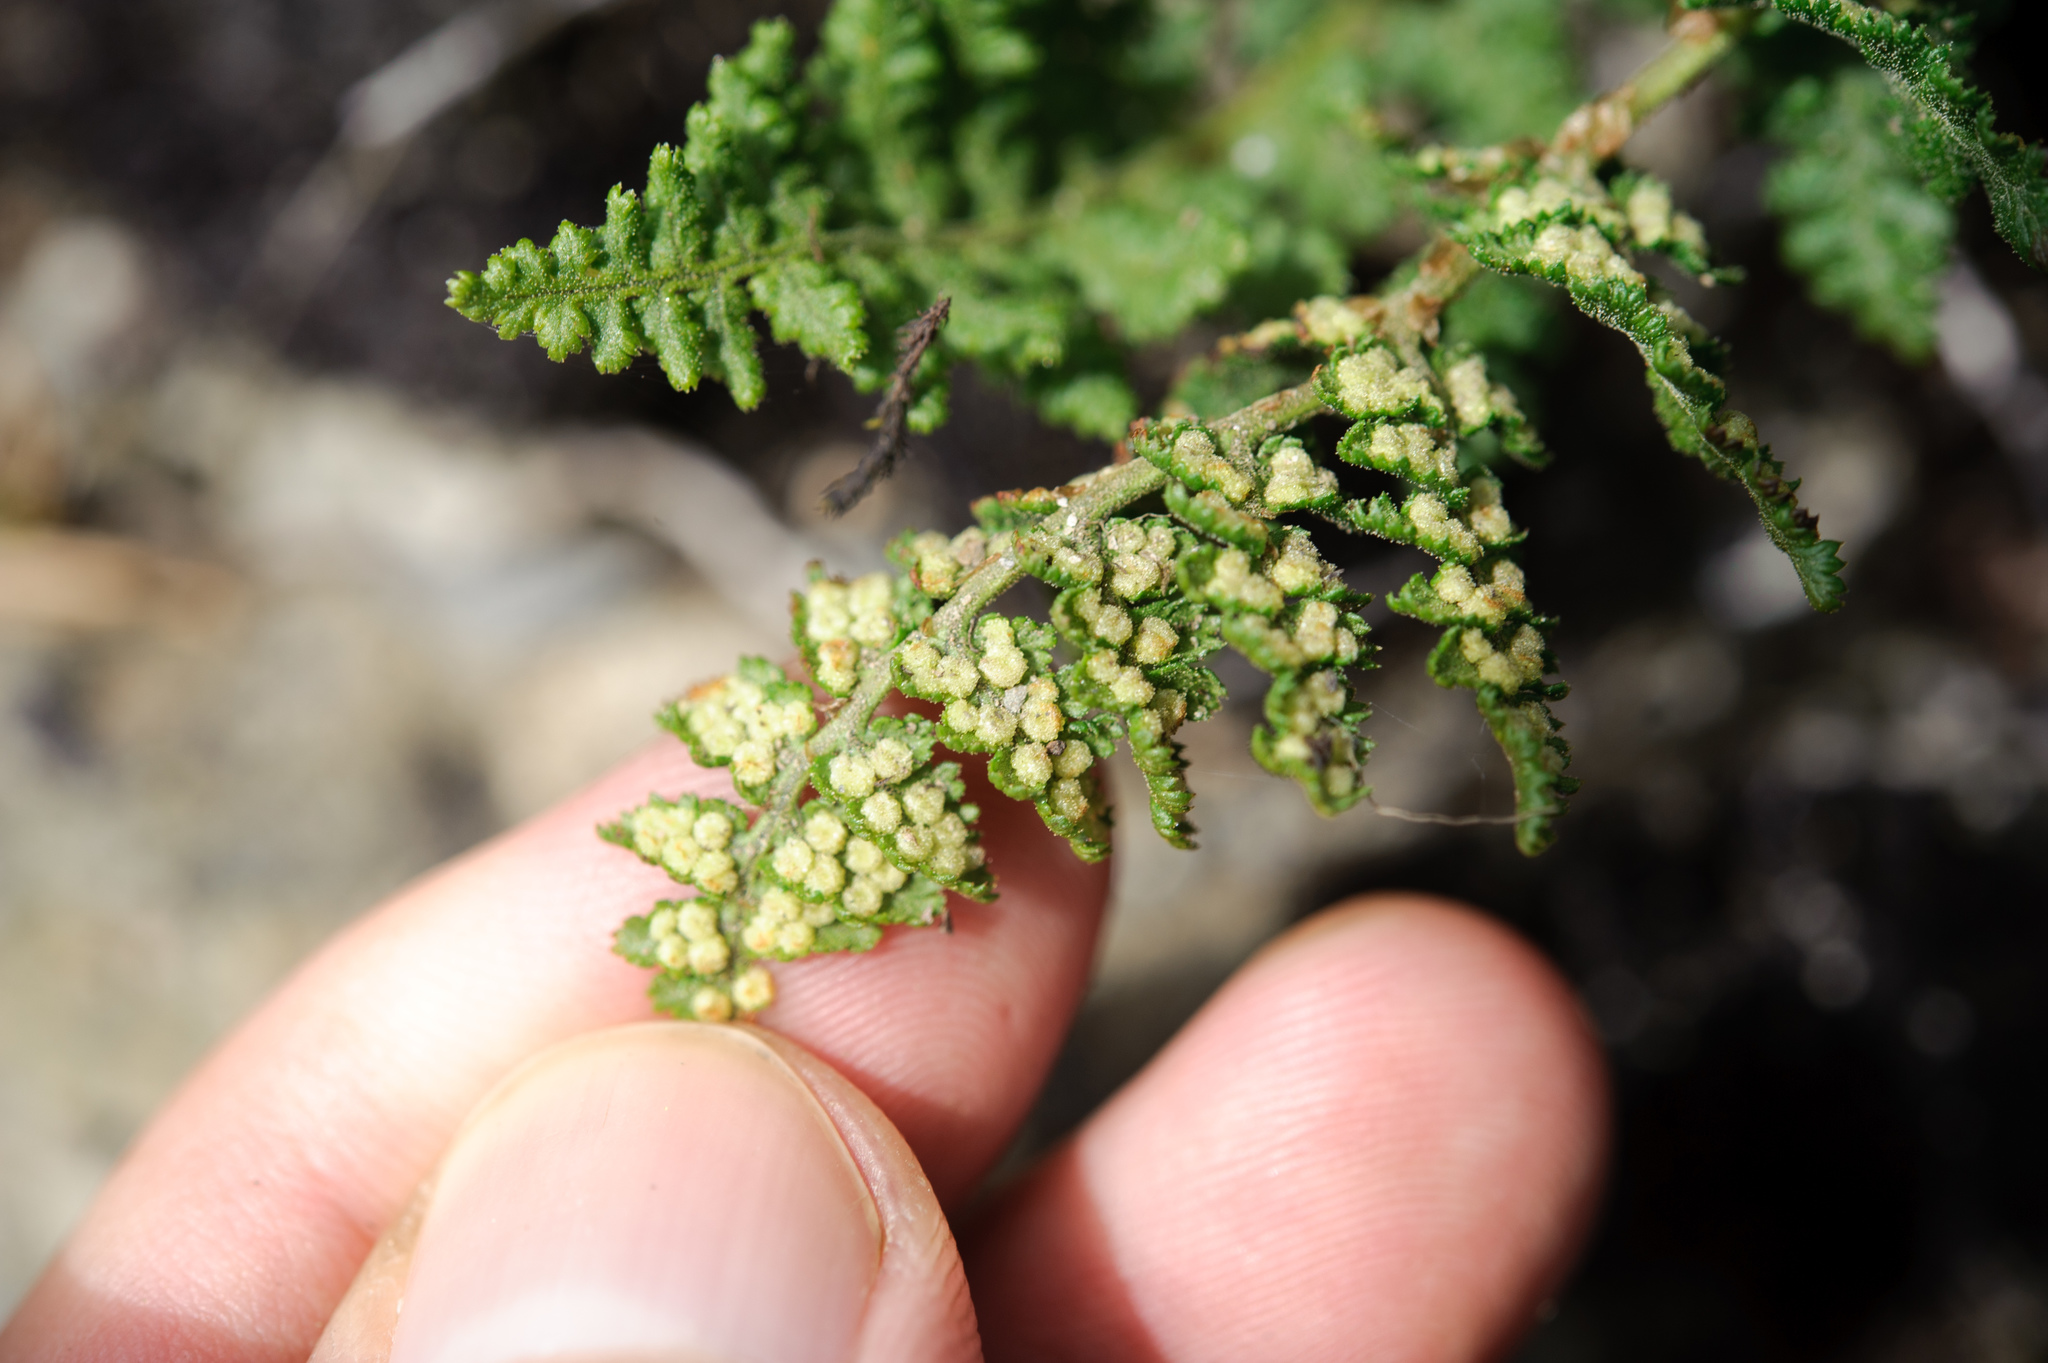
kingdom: Plantae
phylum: Tracheophyta
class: Polypodiopsida
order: Polypodiales
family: Dryopteridaceae
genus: Dryopteris
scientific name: Dryopteris alpestris
